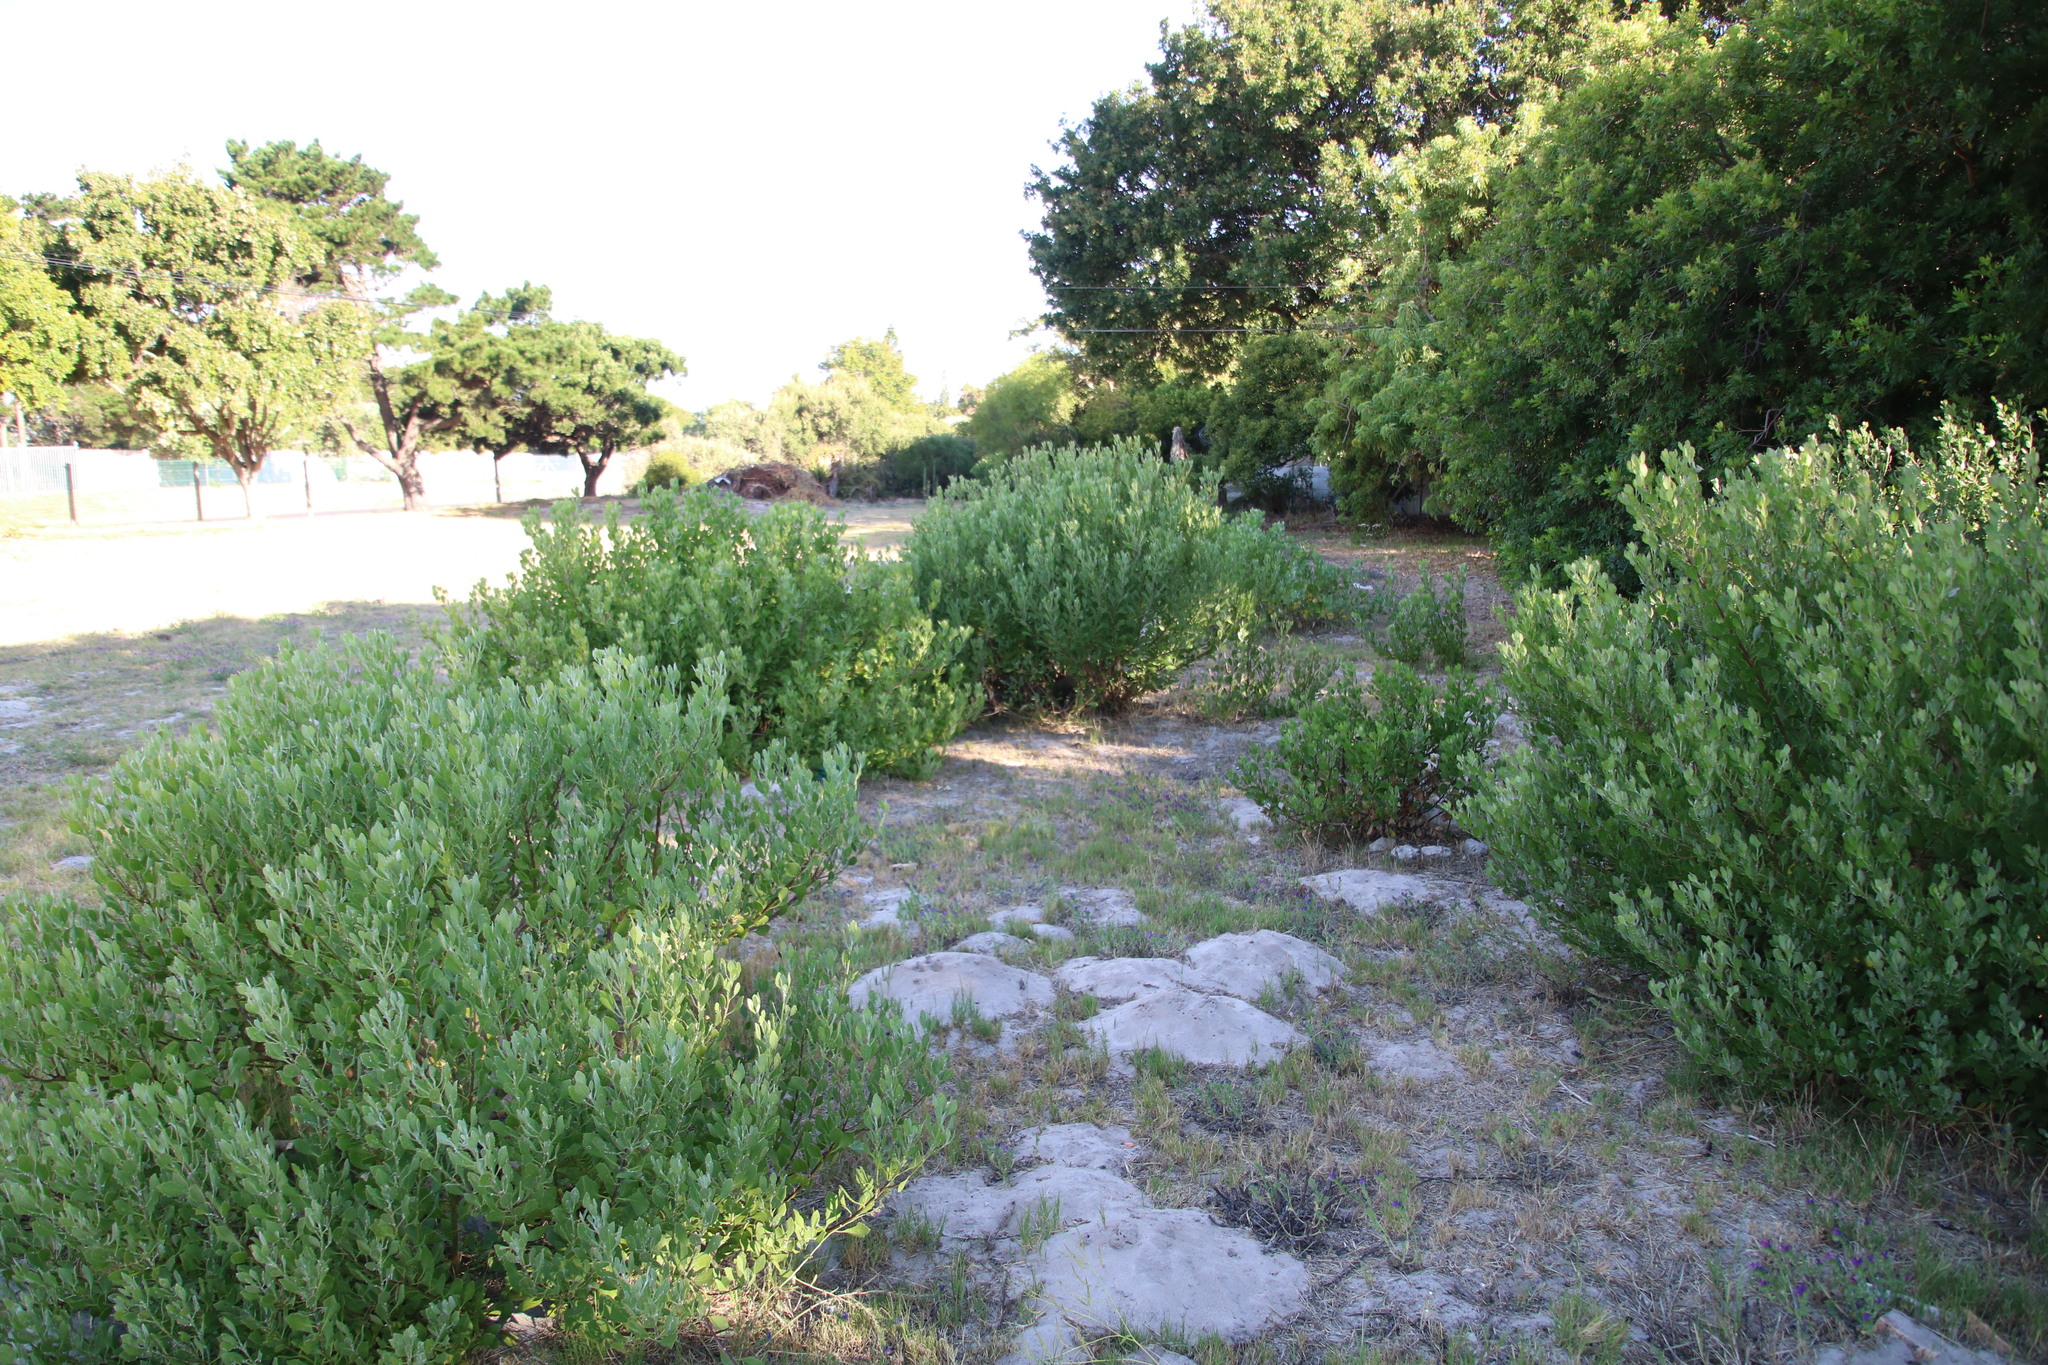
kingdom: Plantae
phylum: Tracheophyta
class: Magnoliopsida
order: Asterales
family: Asteraceae
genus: Osteospermum
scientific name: Osteospermum moniliferum
